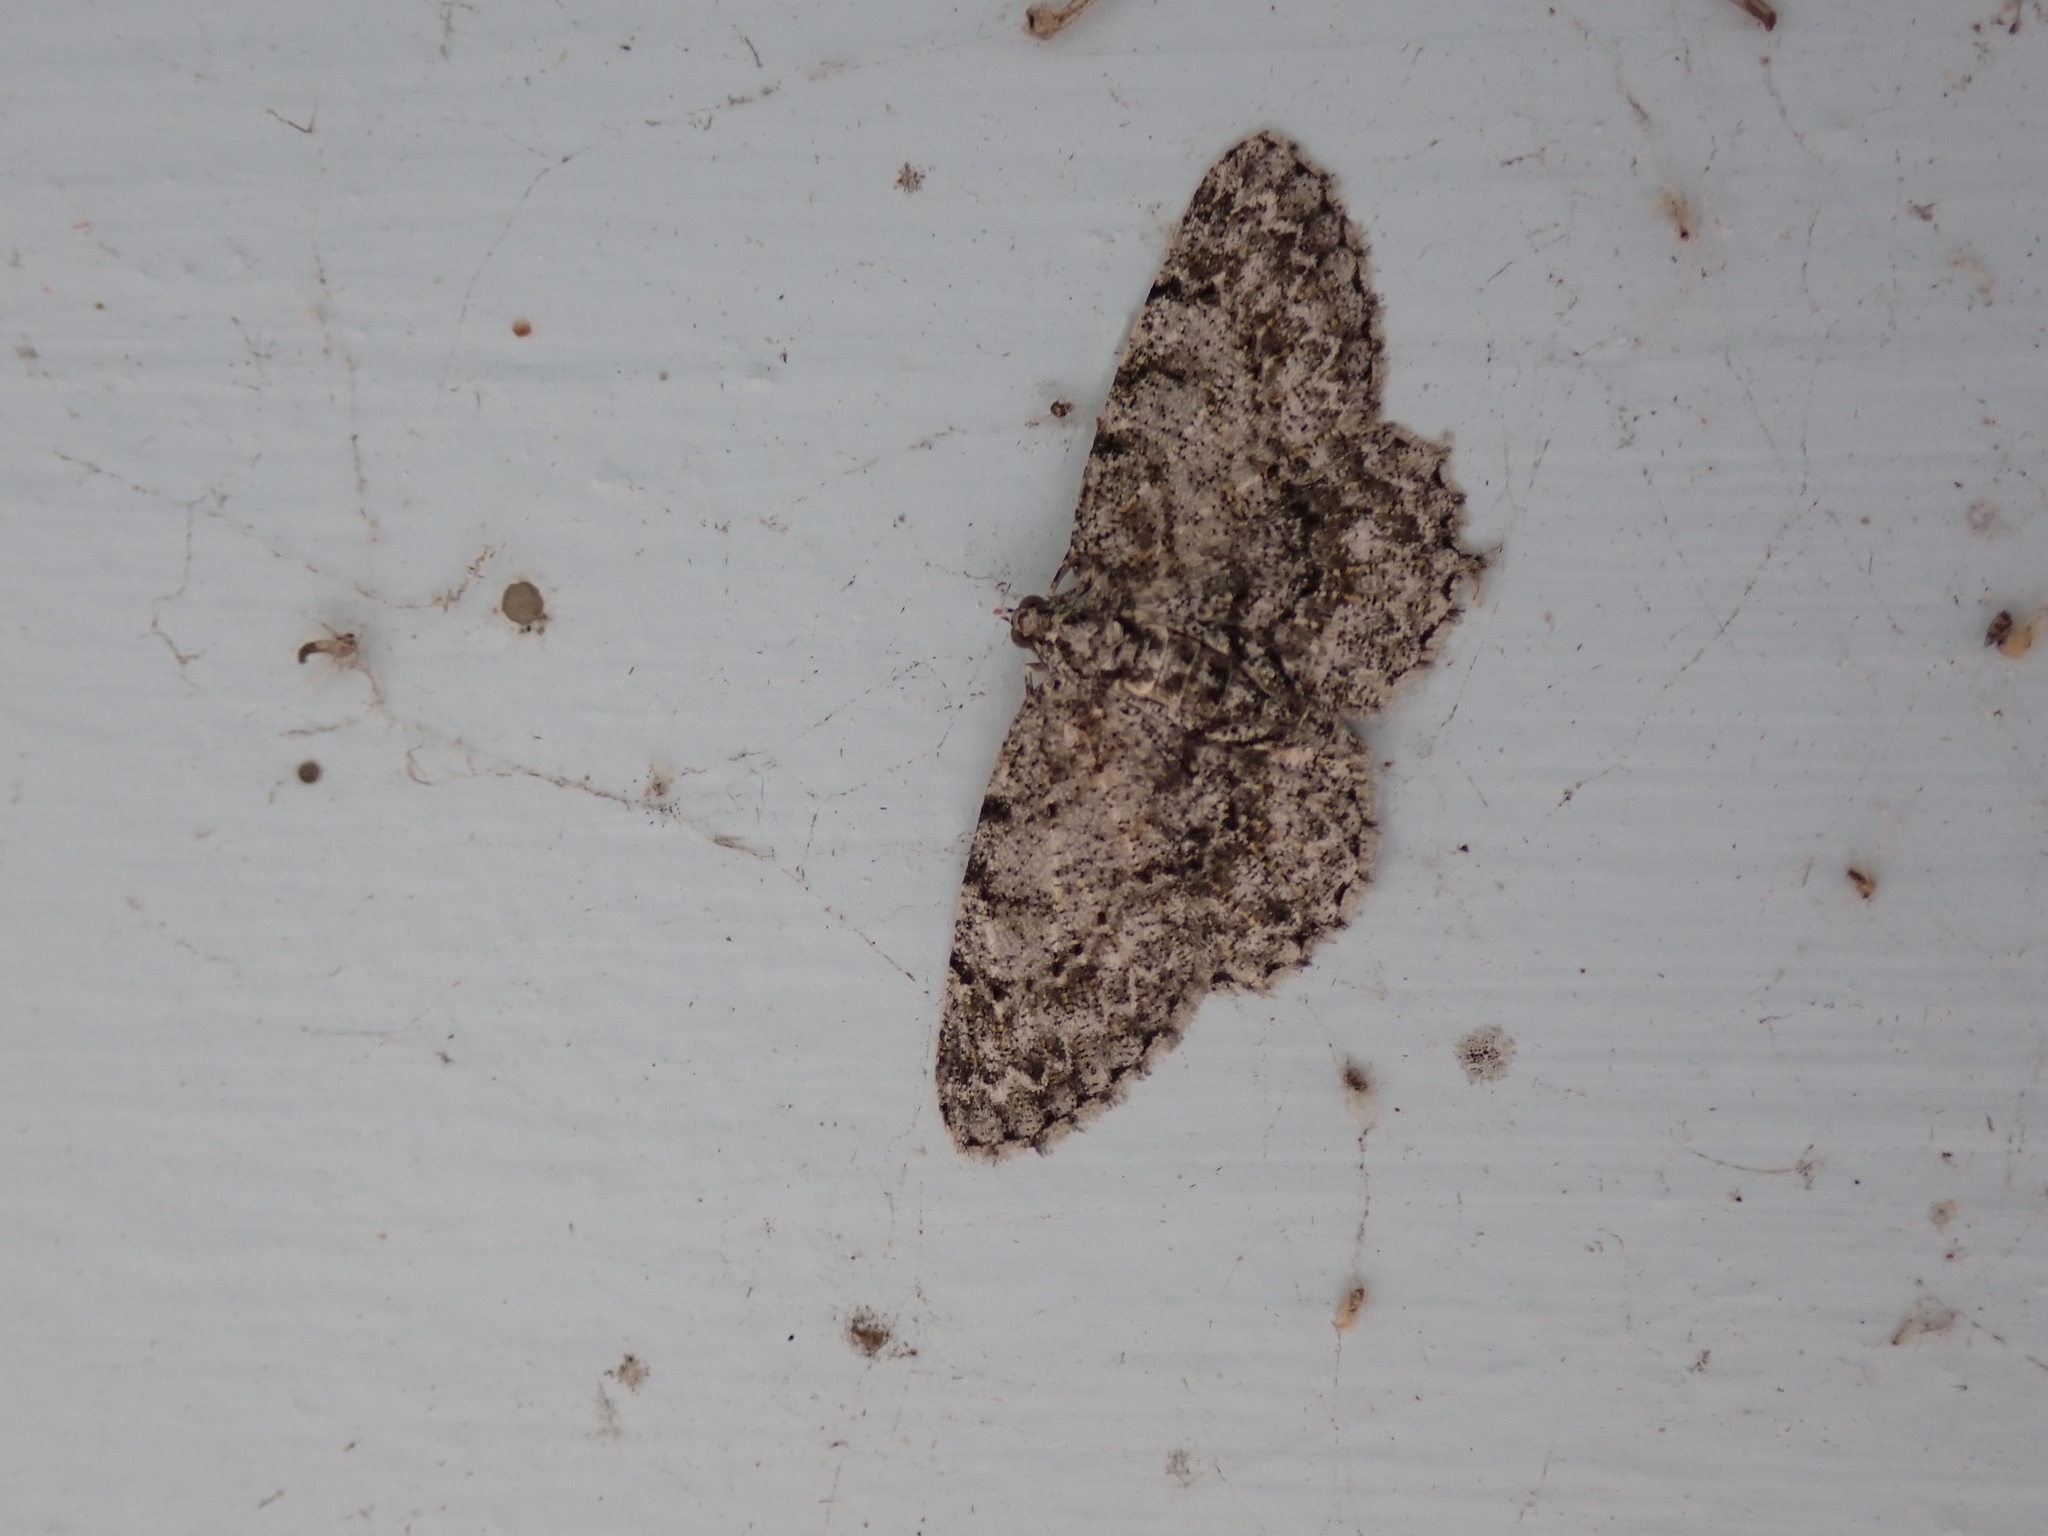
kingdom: Animalia
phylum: Arthropoda
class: Insecta
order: Lepidoptera
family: Geometridae
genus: Protoboarmia
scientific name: Protoboarmia porcelaria
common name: Porcelain gray
